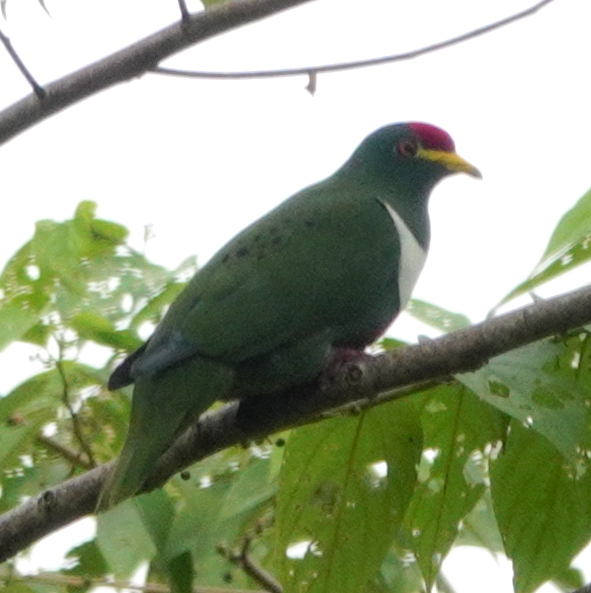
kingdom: Animalia
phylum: Chordata
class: Aves
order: Columbiformes
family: Columbidae
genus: Ptilinopus
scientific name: Ptilinopus rivoli
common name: White-bibbed fruit dove
